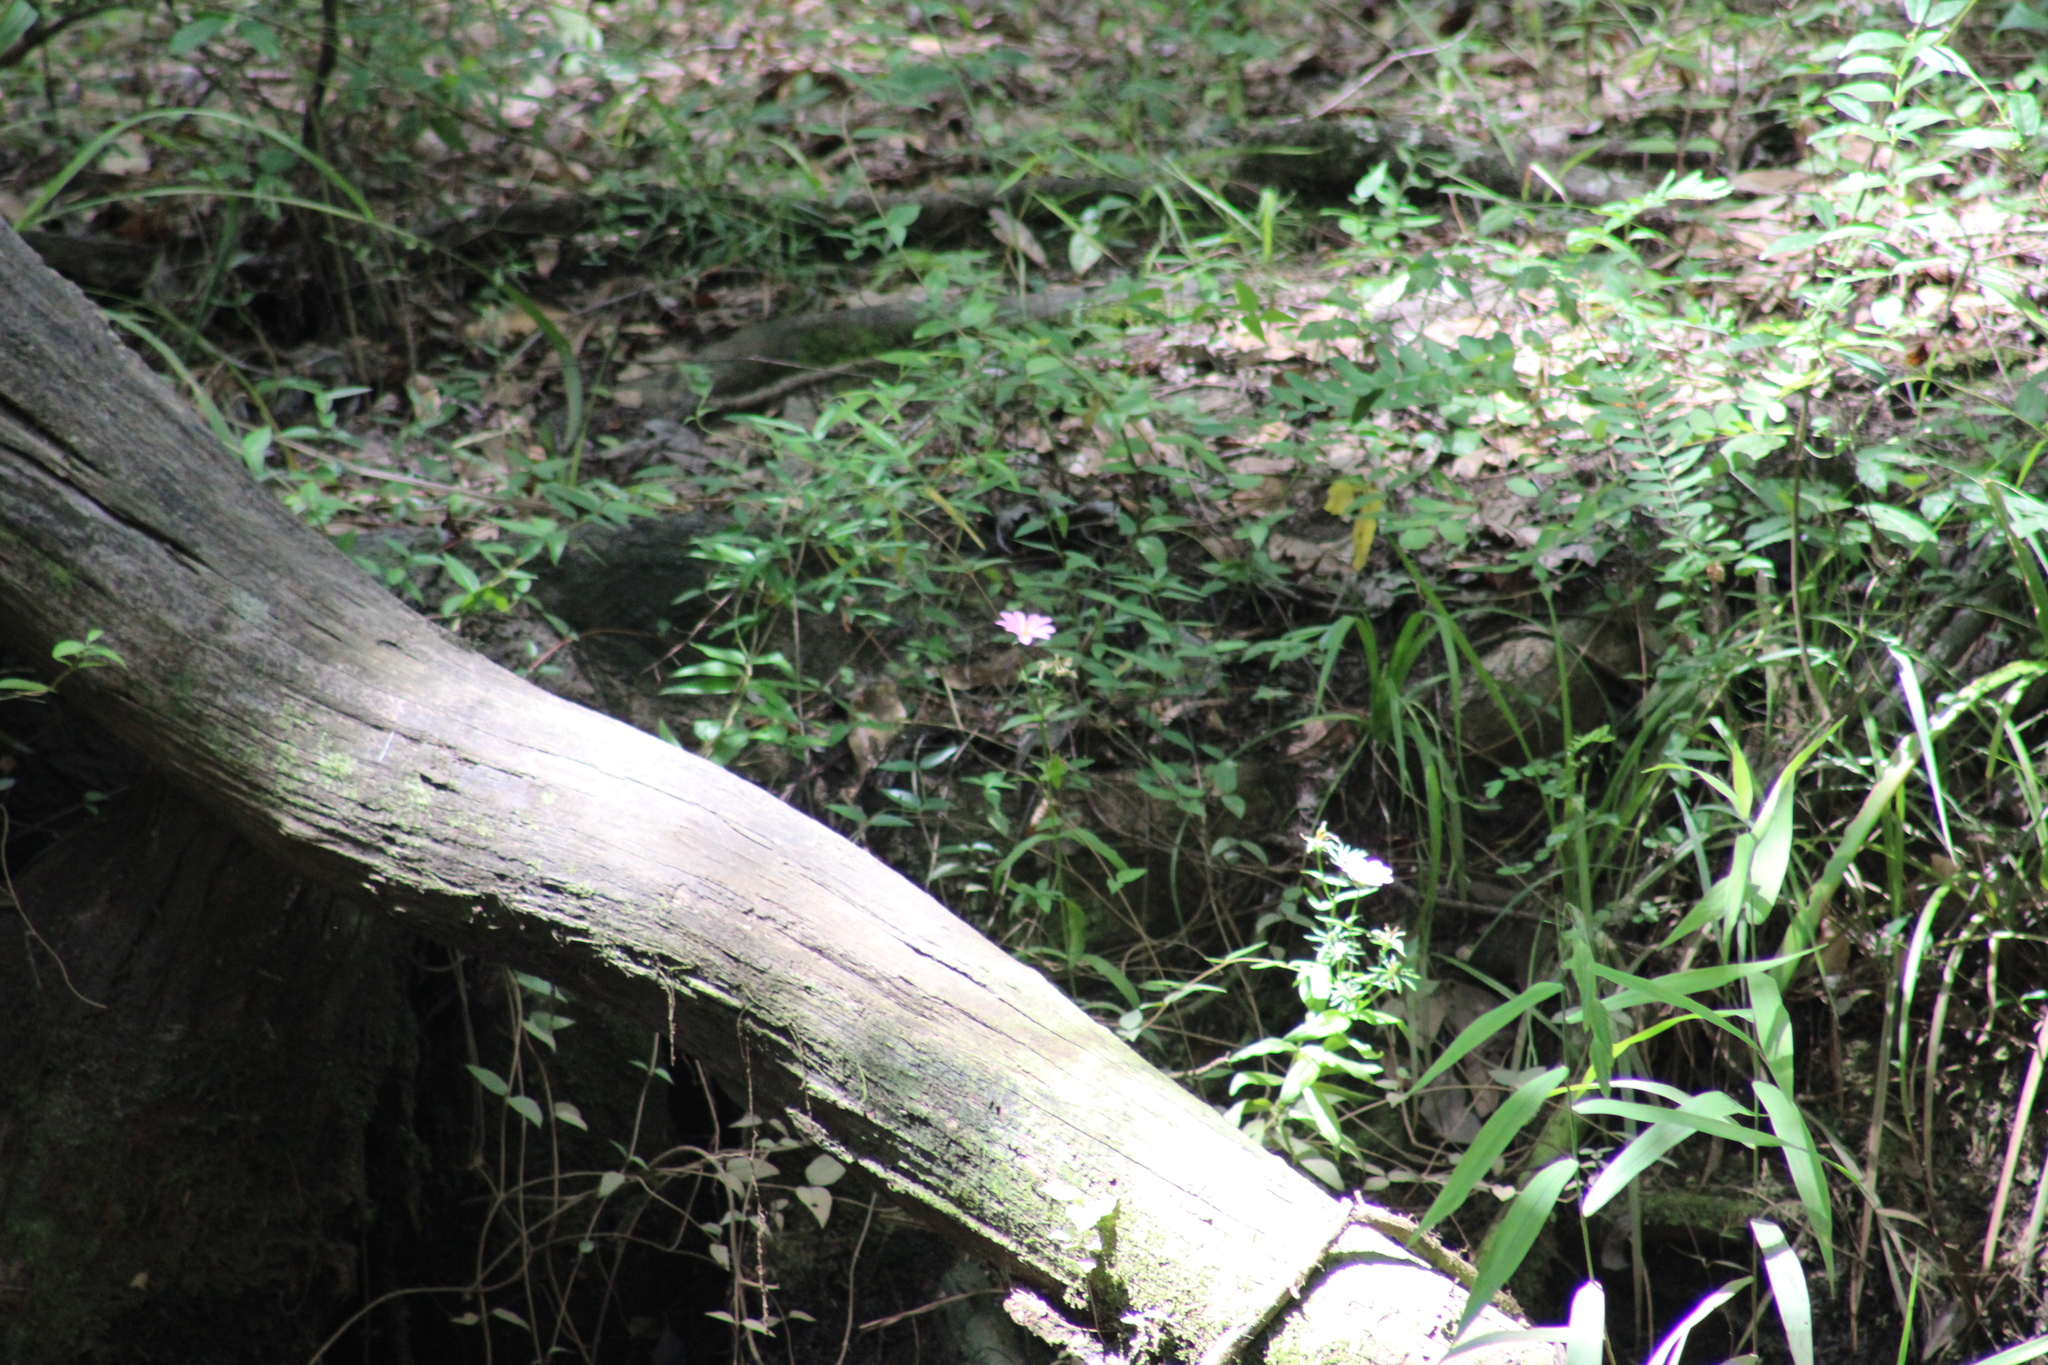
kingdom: Plantae
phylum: Tracheophyta
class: Magnoliopsida
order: Gentianales
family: Gentianaceae
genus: Sabatia
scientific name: Sabatia foliosa
